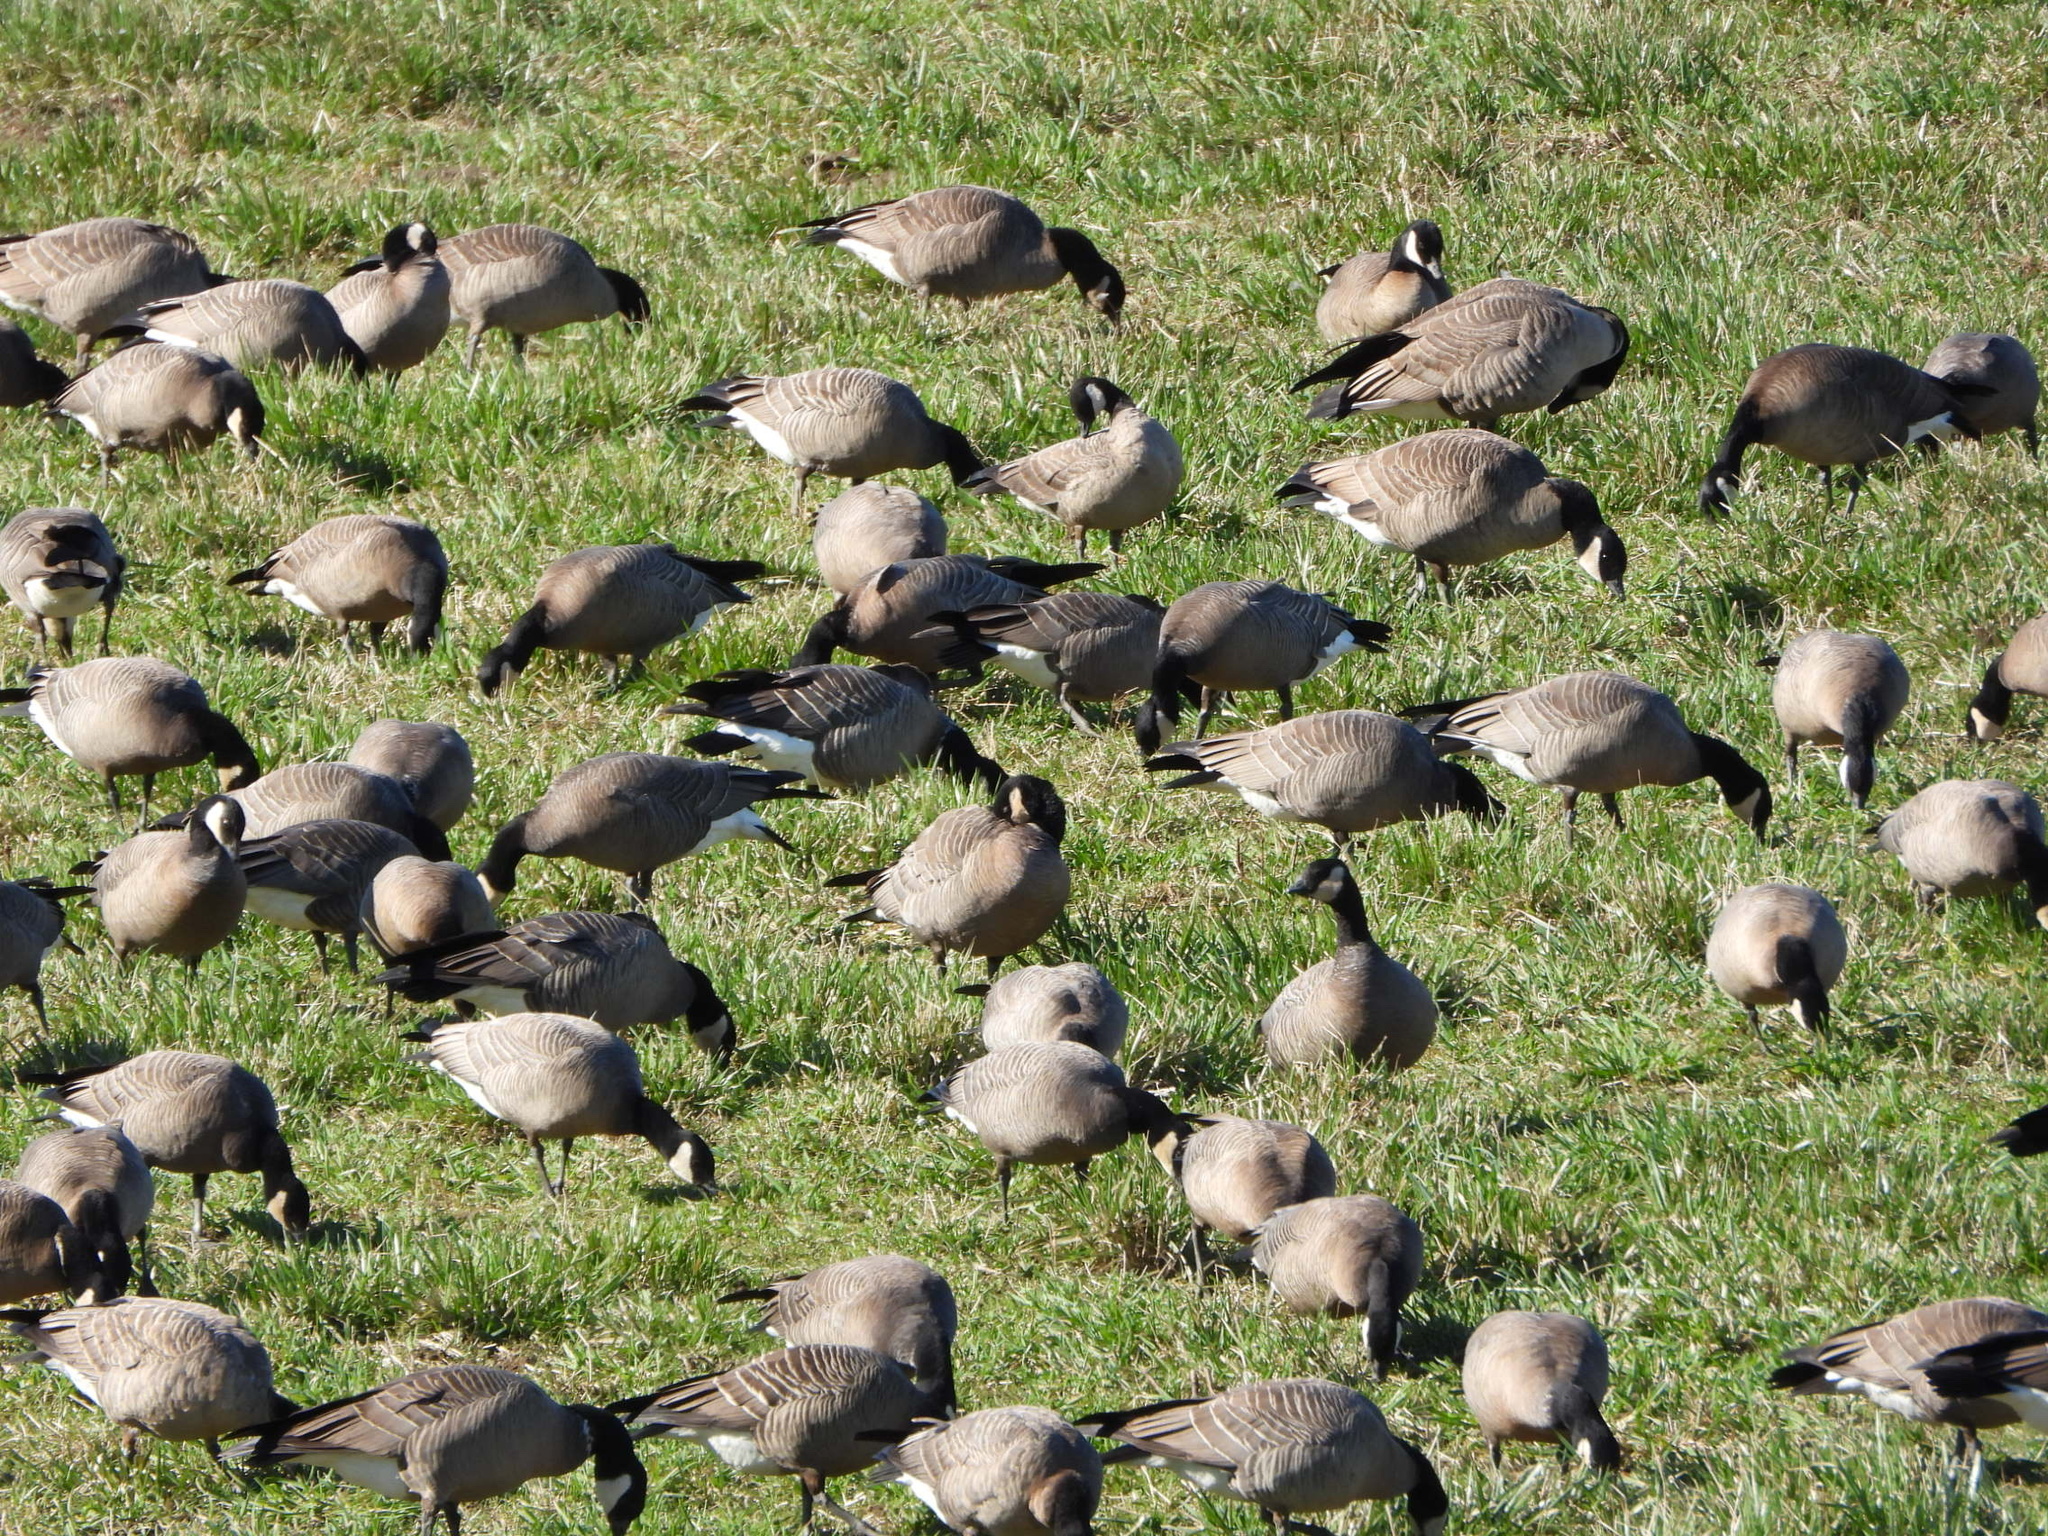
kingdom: Animalia
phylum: Chordata
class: Aves
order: Anseriformes
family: Anatidae
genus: Branta
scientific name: Branta hutchinsii
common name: Cackling goose
